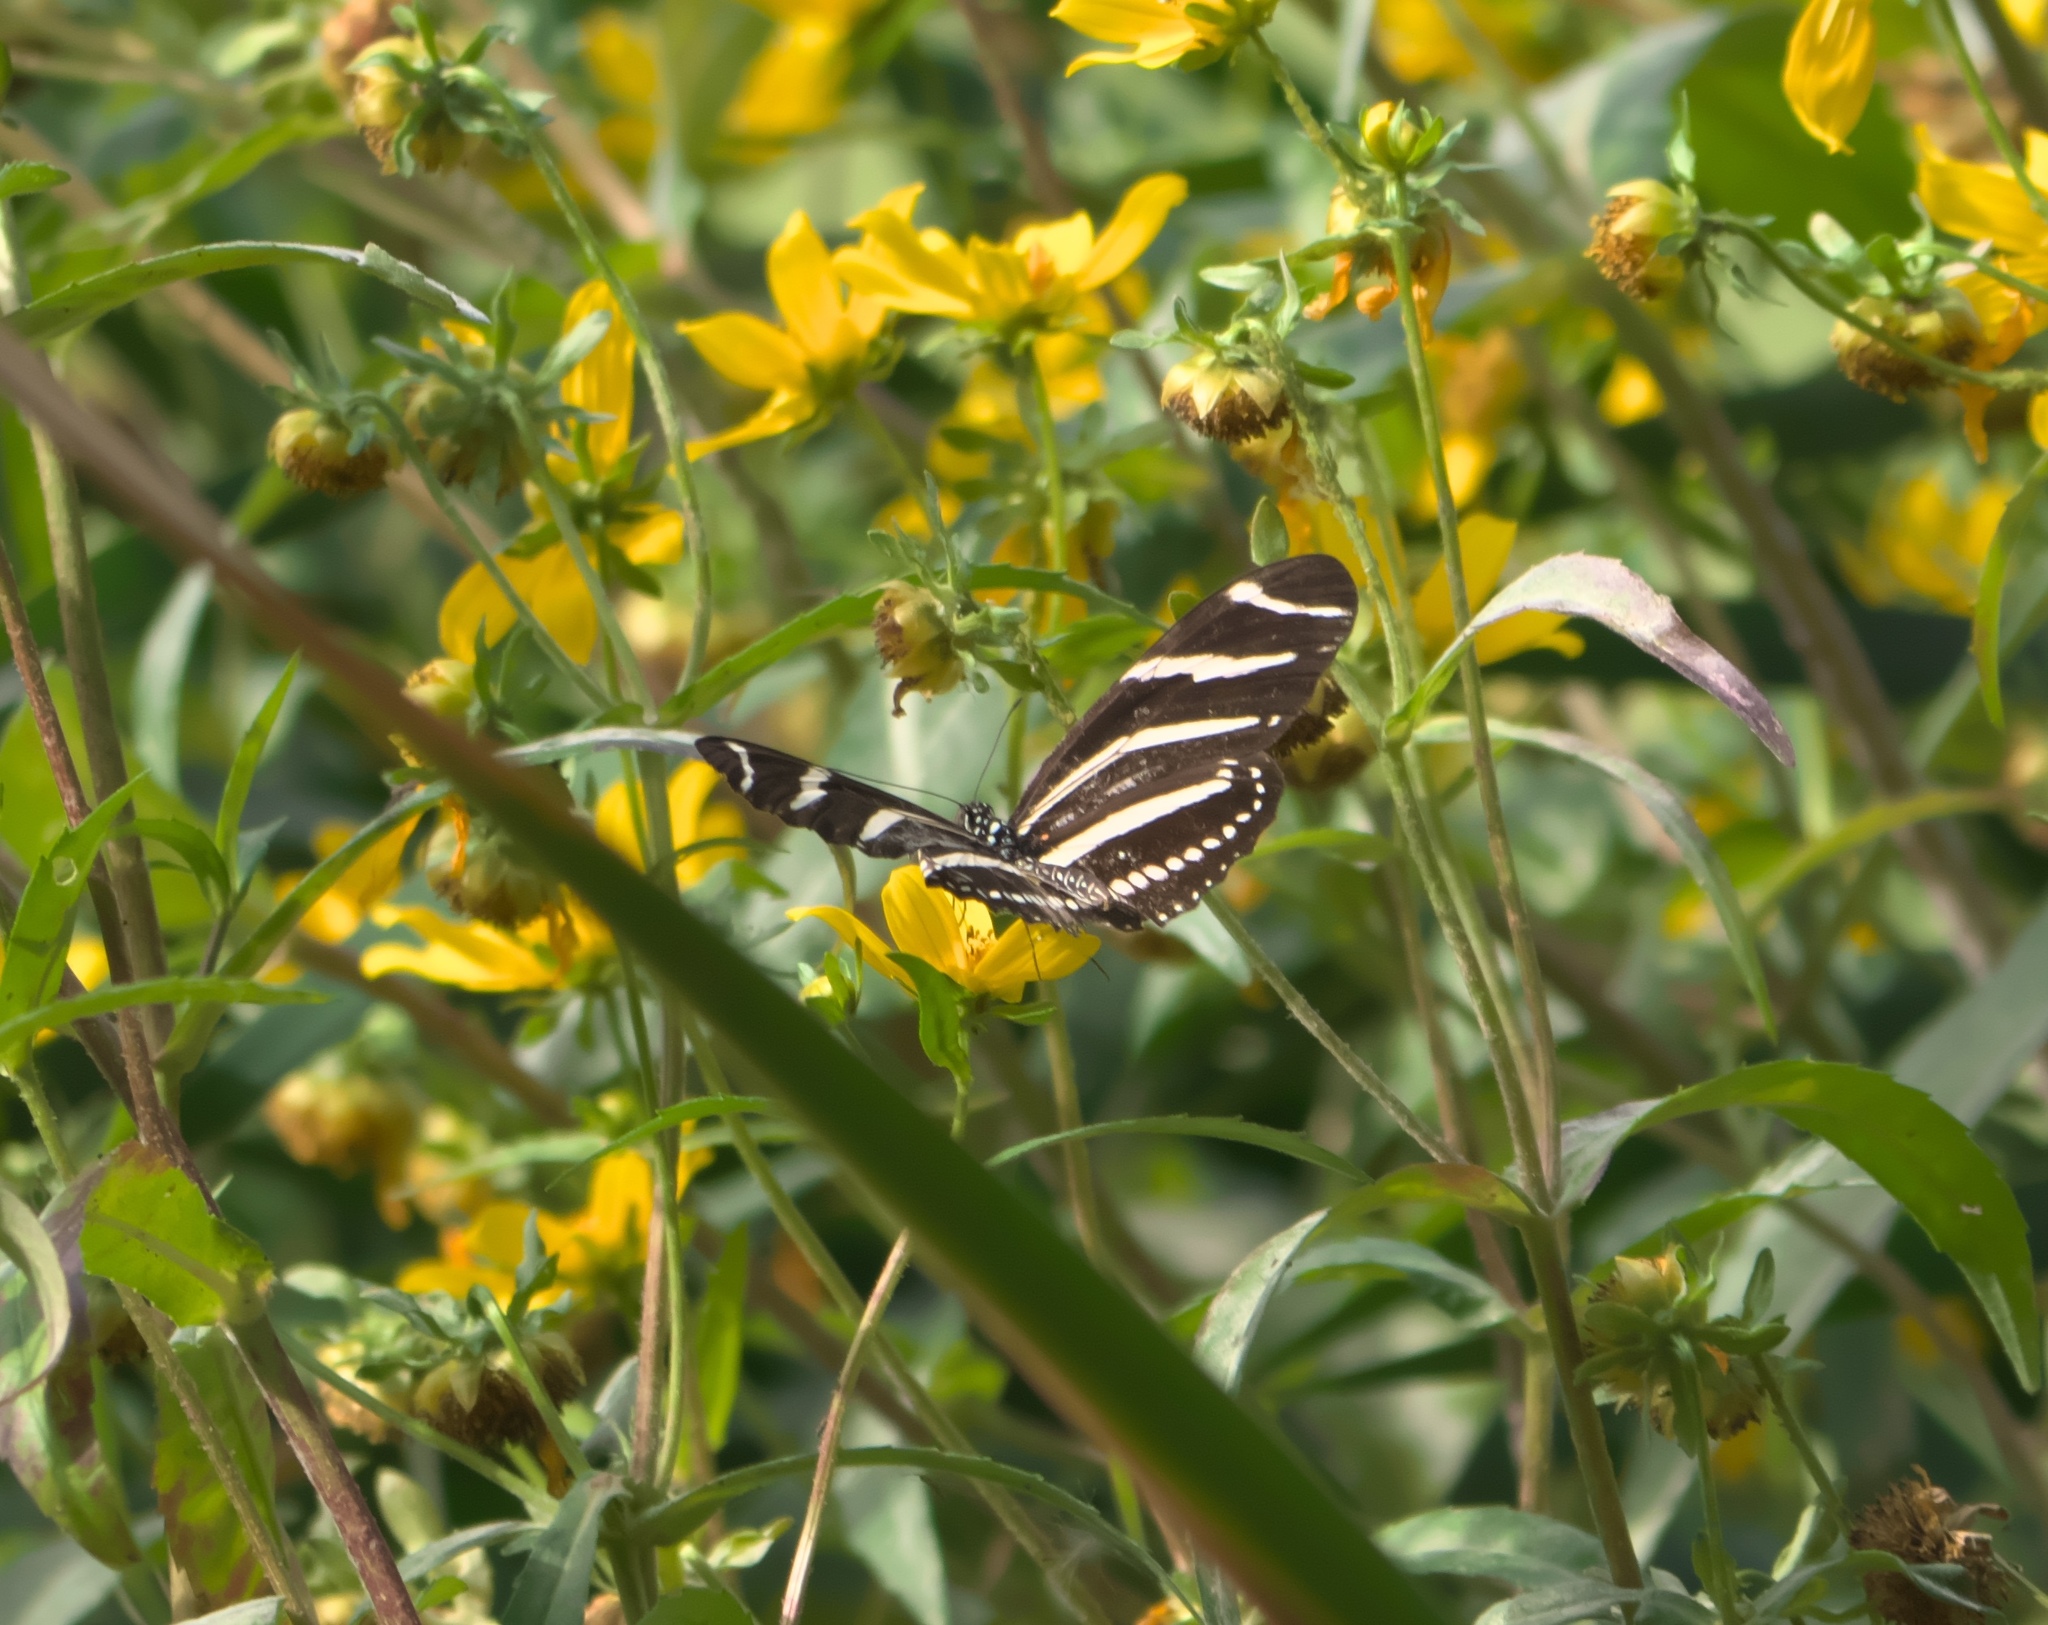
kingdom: Animalia
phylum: Arthropoda
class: Insecta
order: Lepidoptera
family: Nymphalidae
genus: Heliconius
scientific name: Heliconius charithonia
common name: Zebra long wing
